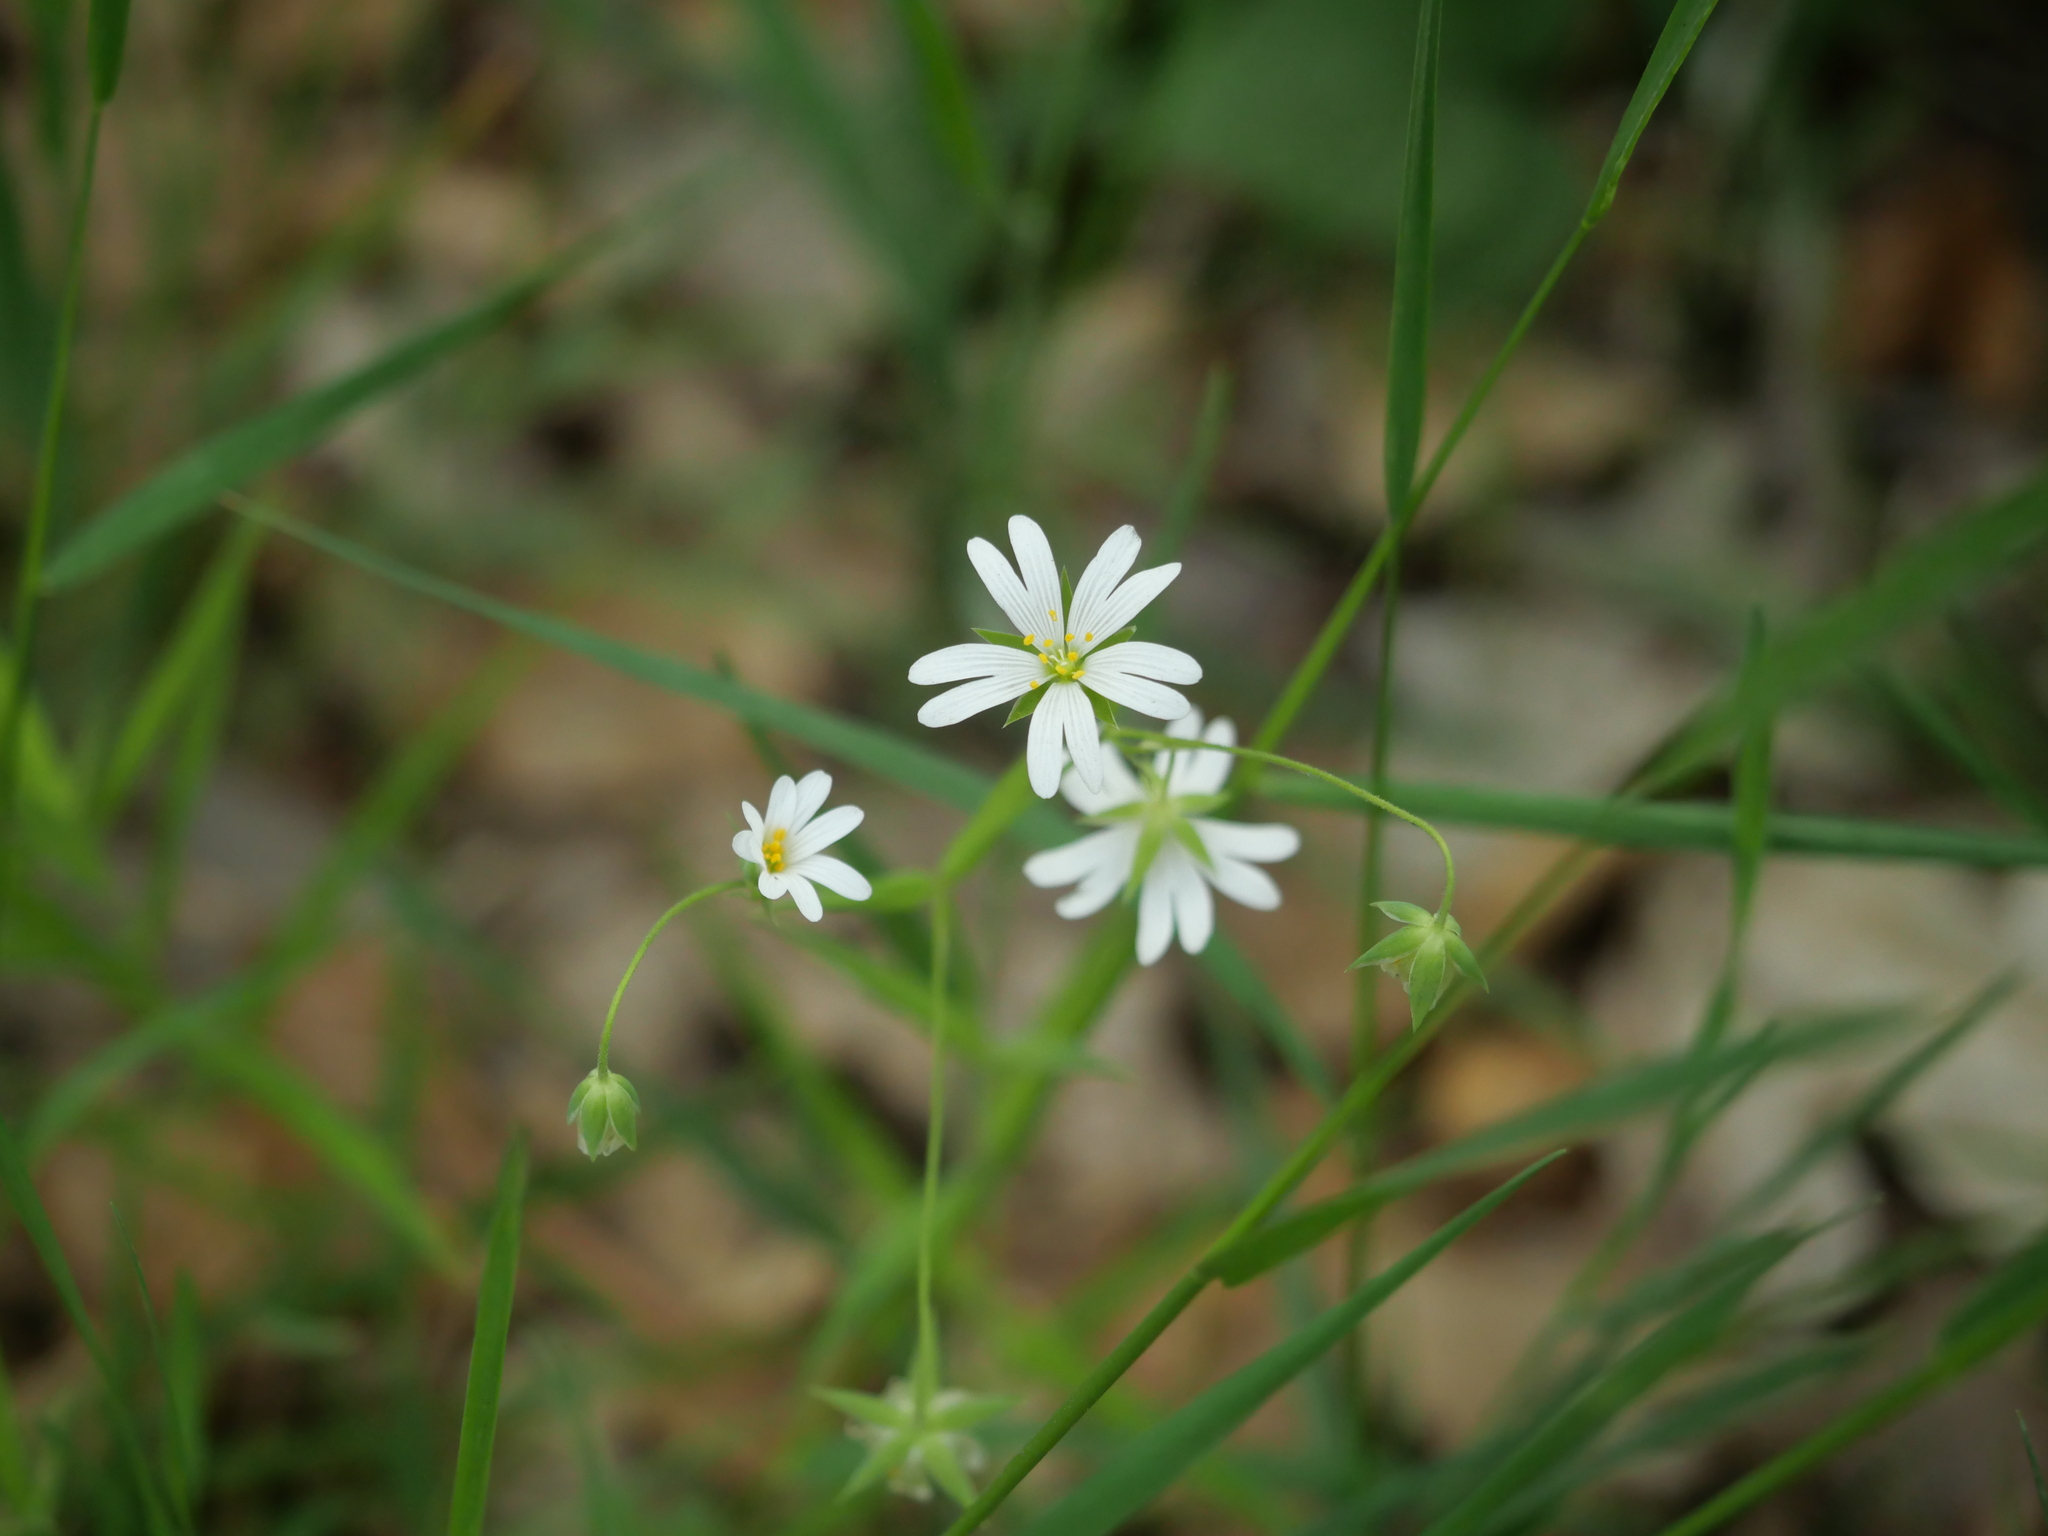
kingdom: Plantae
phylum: Tracheophyta
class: Magnoliopsida
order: Caryophyllales
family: Caryophyllaceae
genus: Rabelera
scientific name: Rabelera holostea
